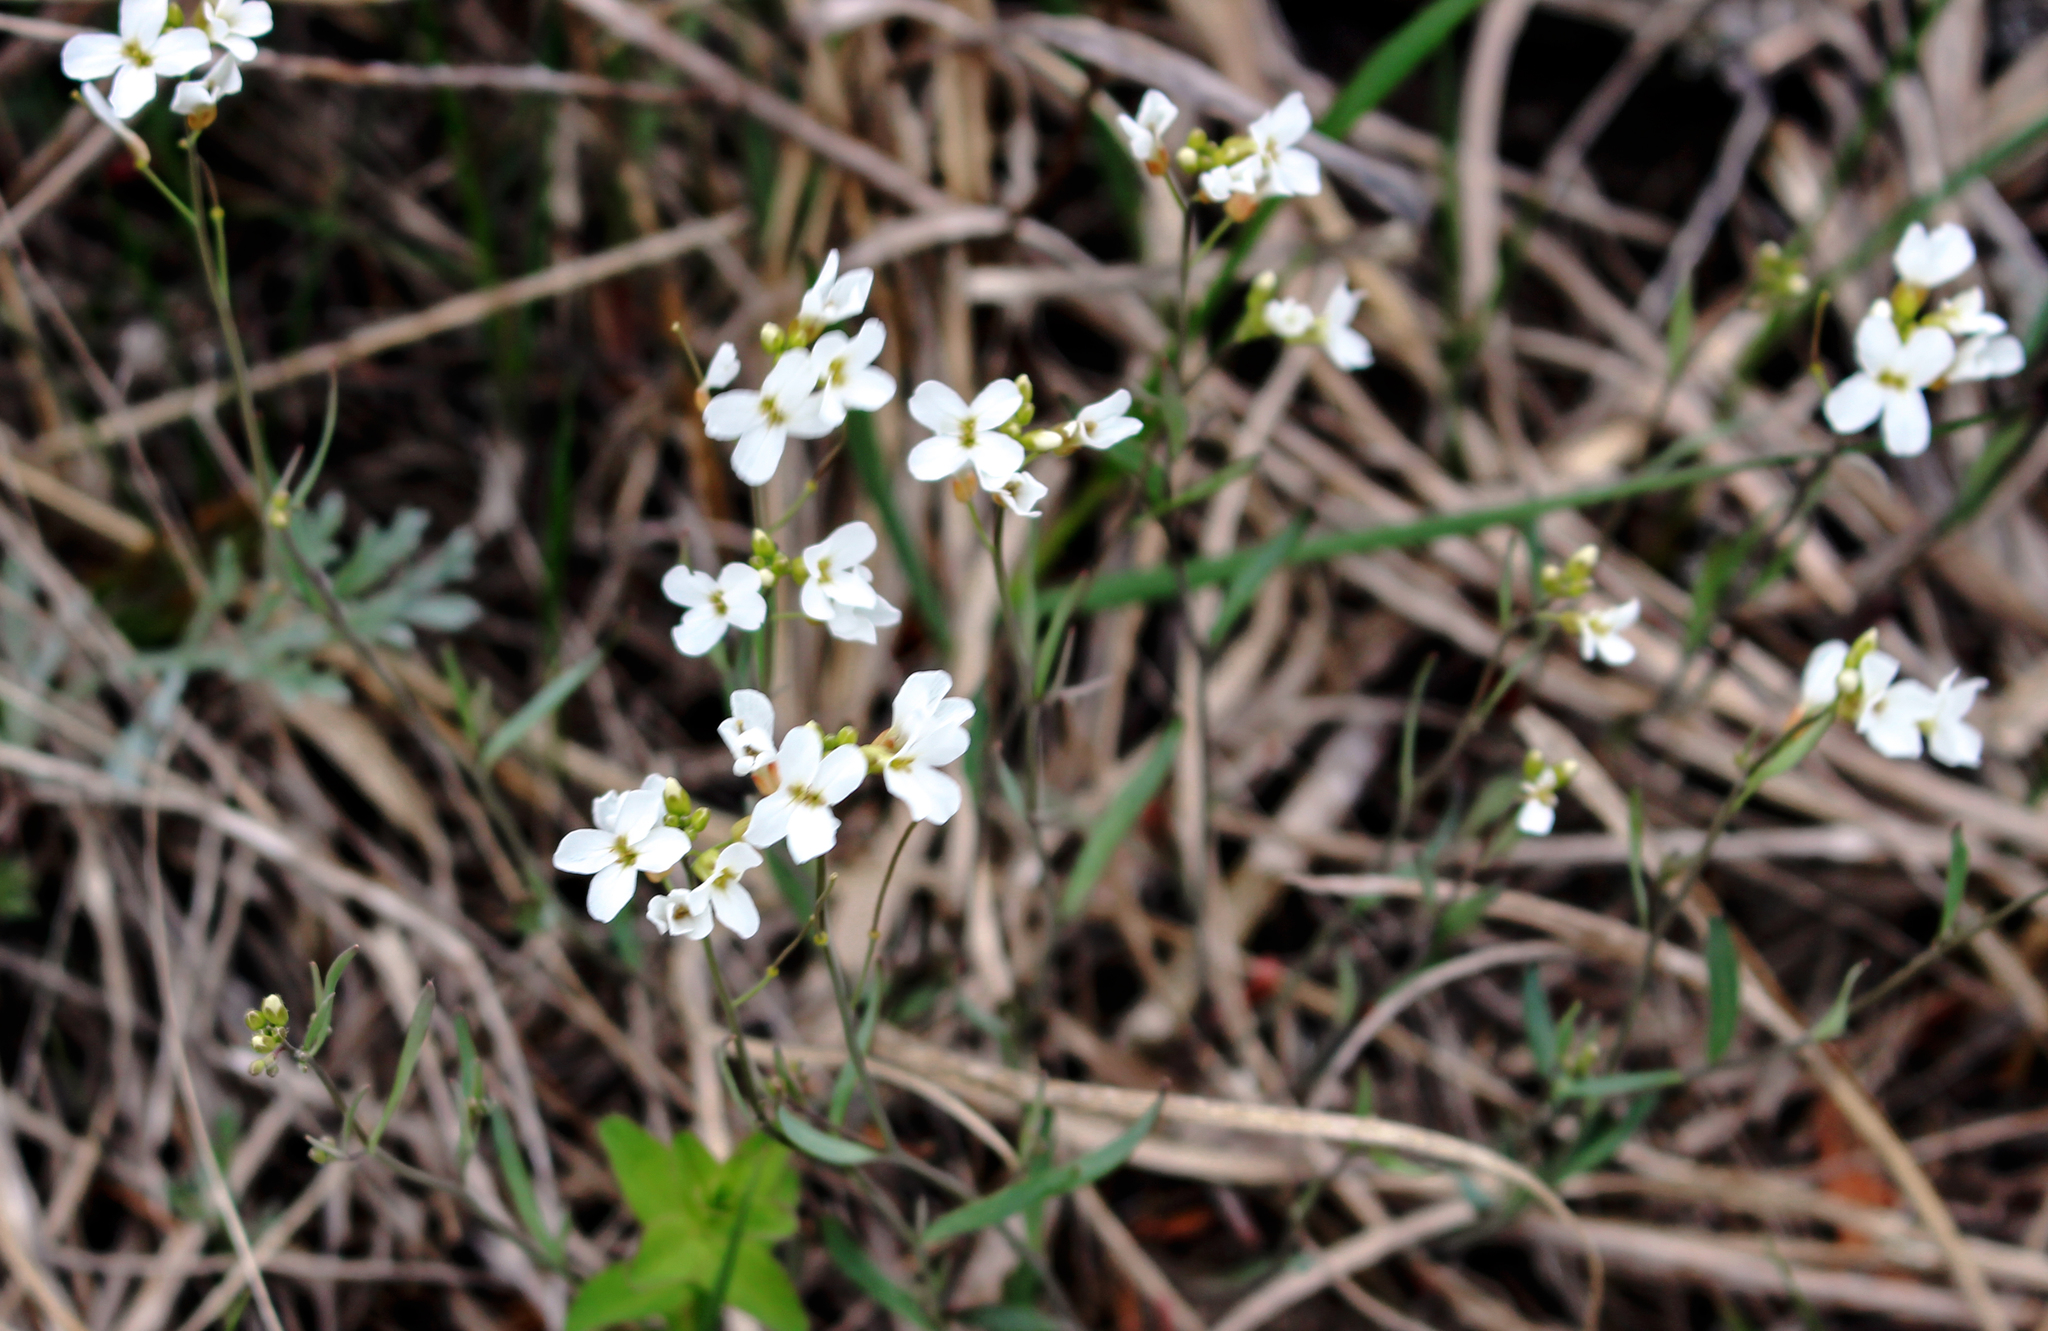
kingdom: Plantae
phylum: Tracheophyta
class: Magnoliopsida
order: Brassicales
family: Brassicaceae
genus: Arabidopsis
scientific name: Arabidopsis lyrata
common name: Lyrate rockcress
